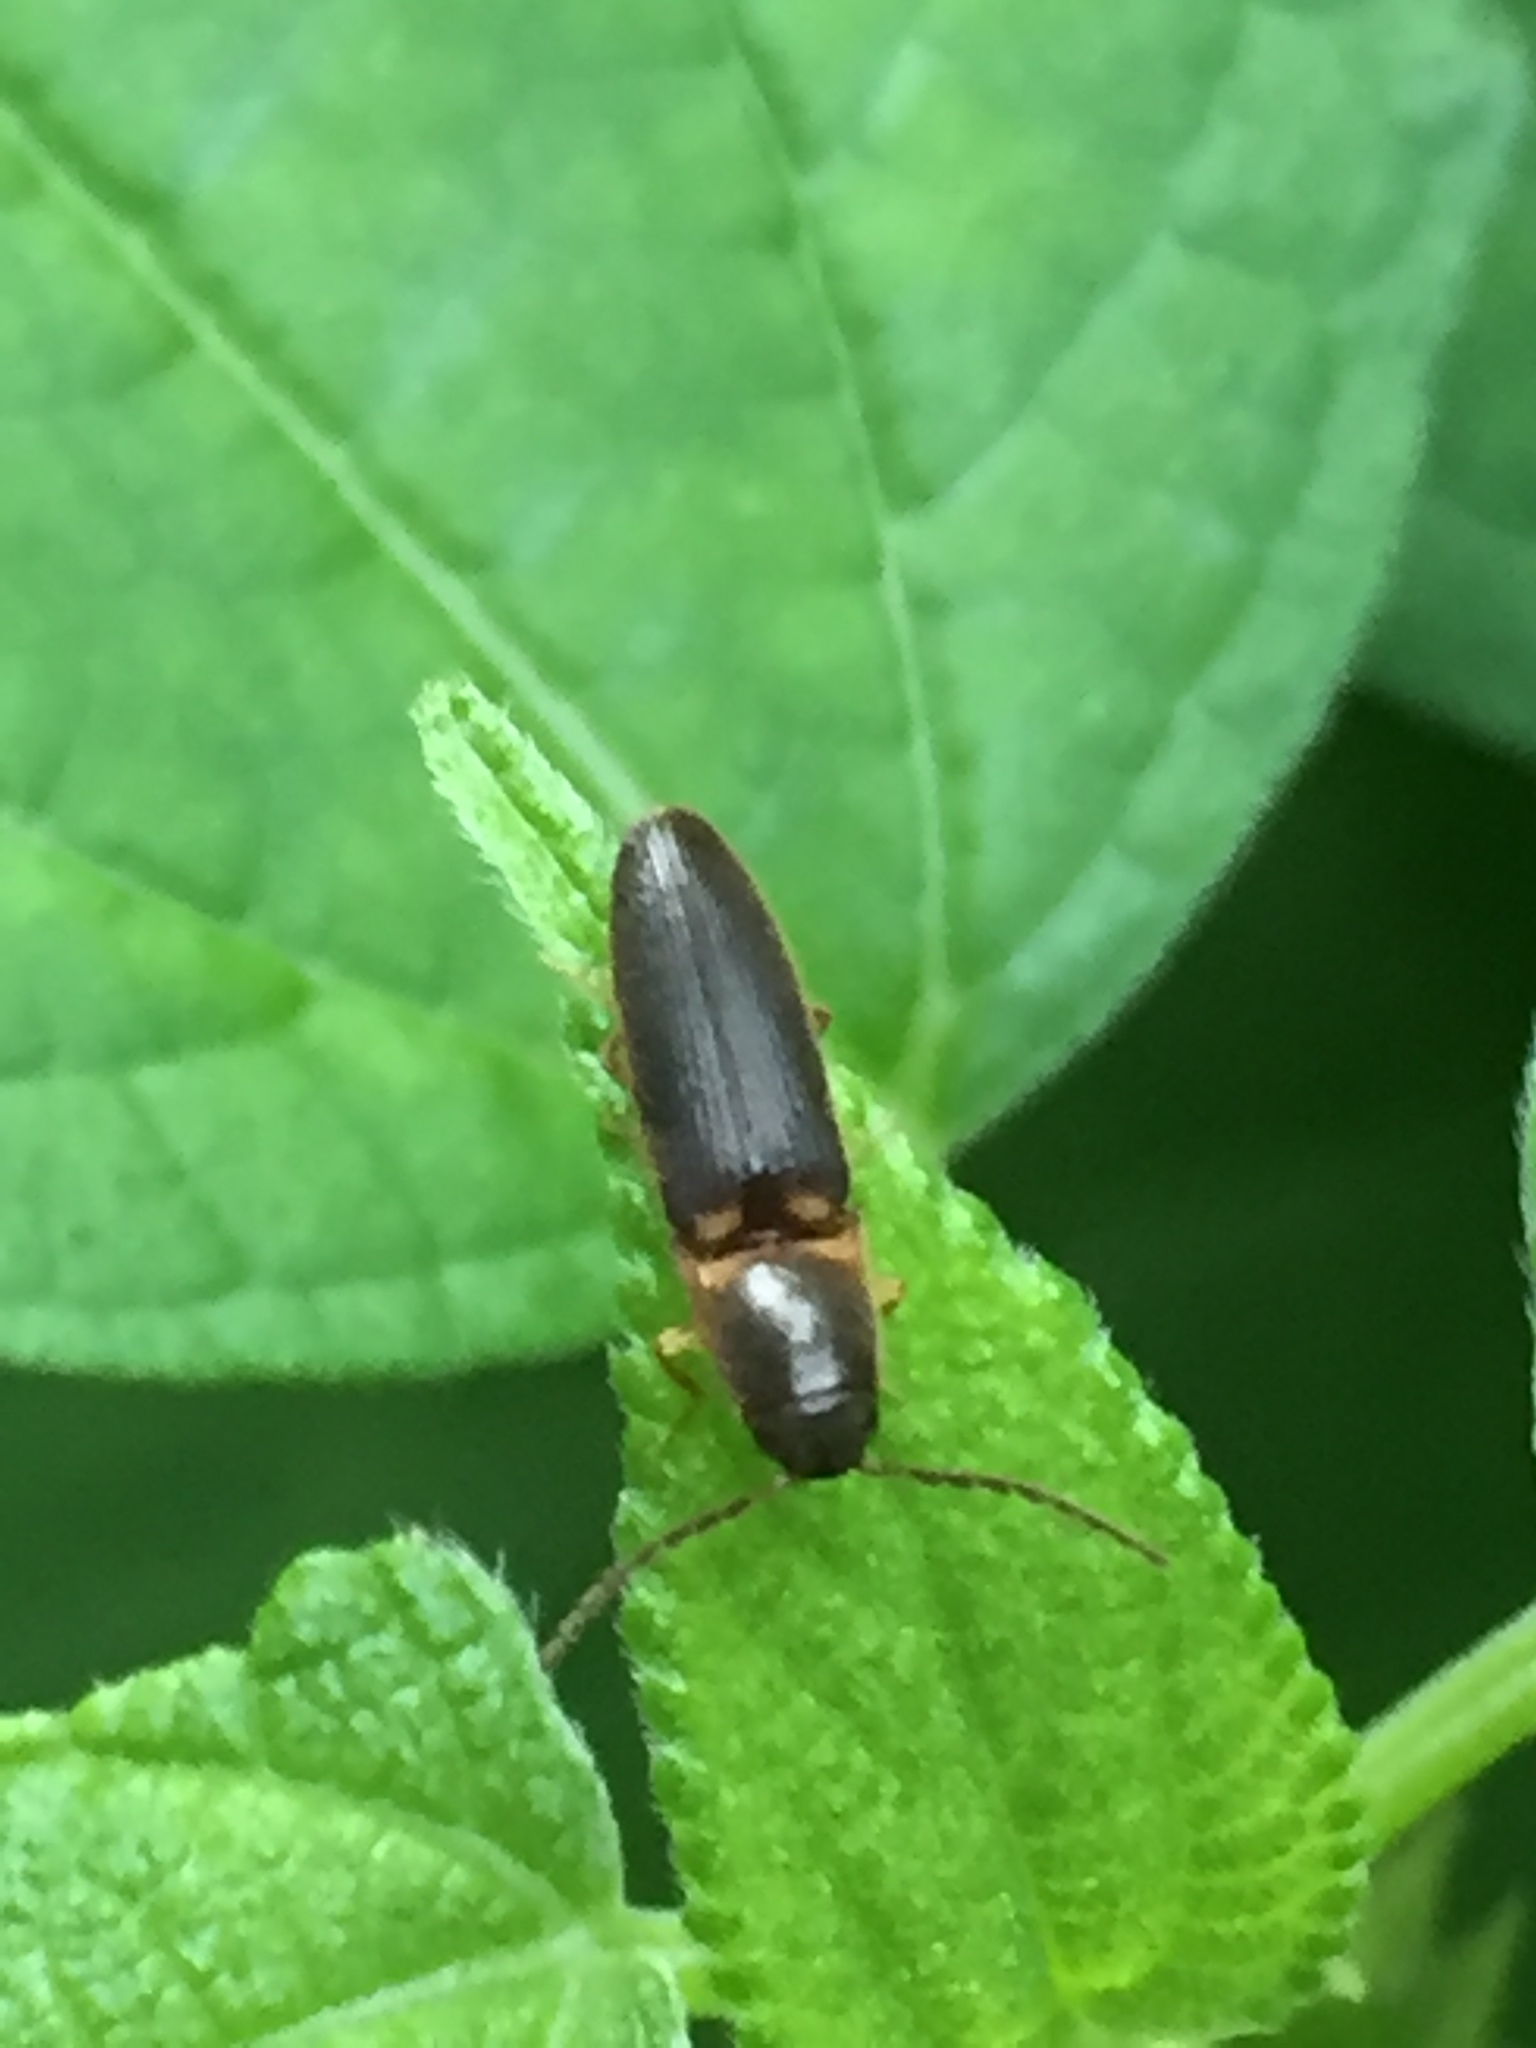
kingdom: Animalia
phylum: Arthropoda
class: Insecta
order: Coleoptera
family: Elateridae
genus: Megapenthes
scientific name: Megapenthes
